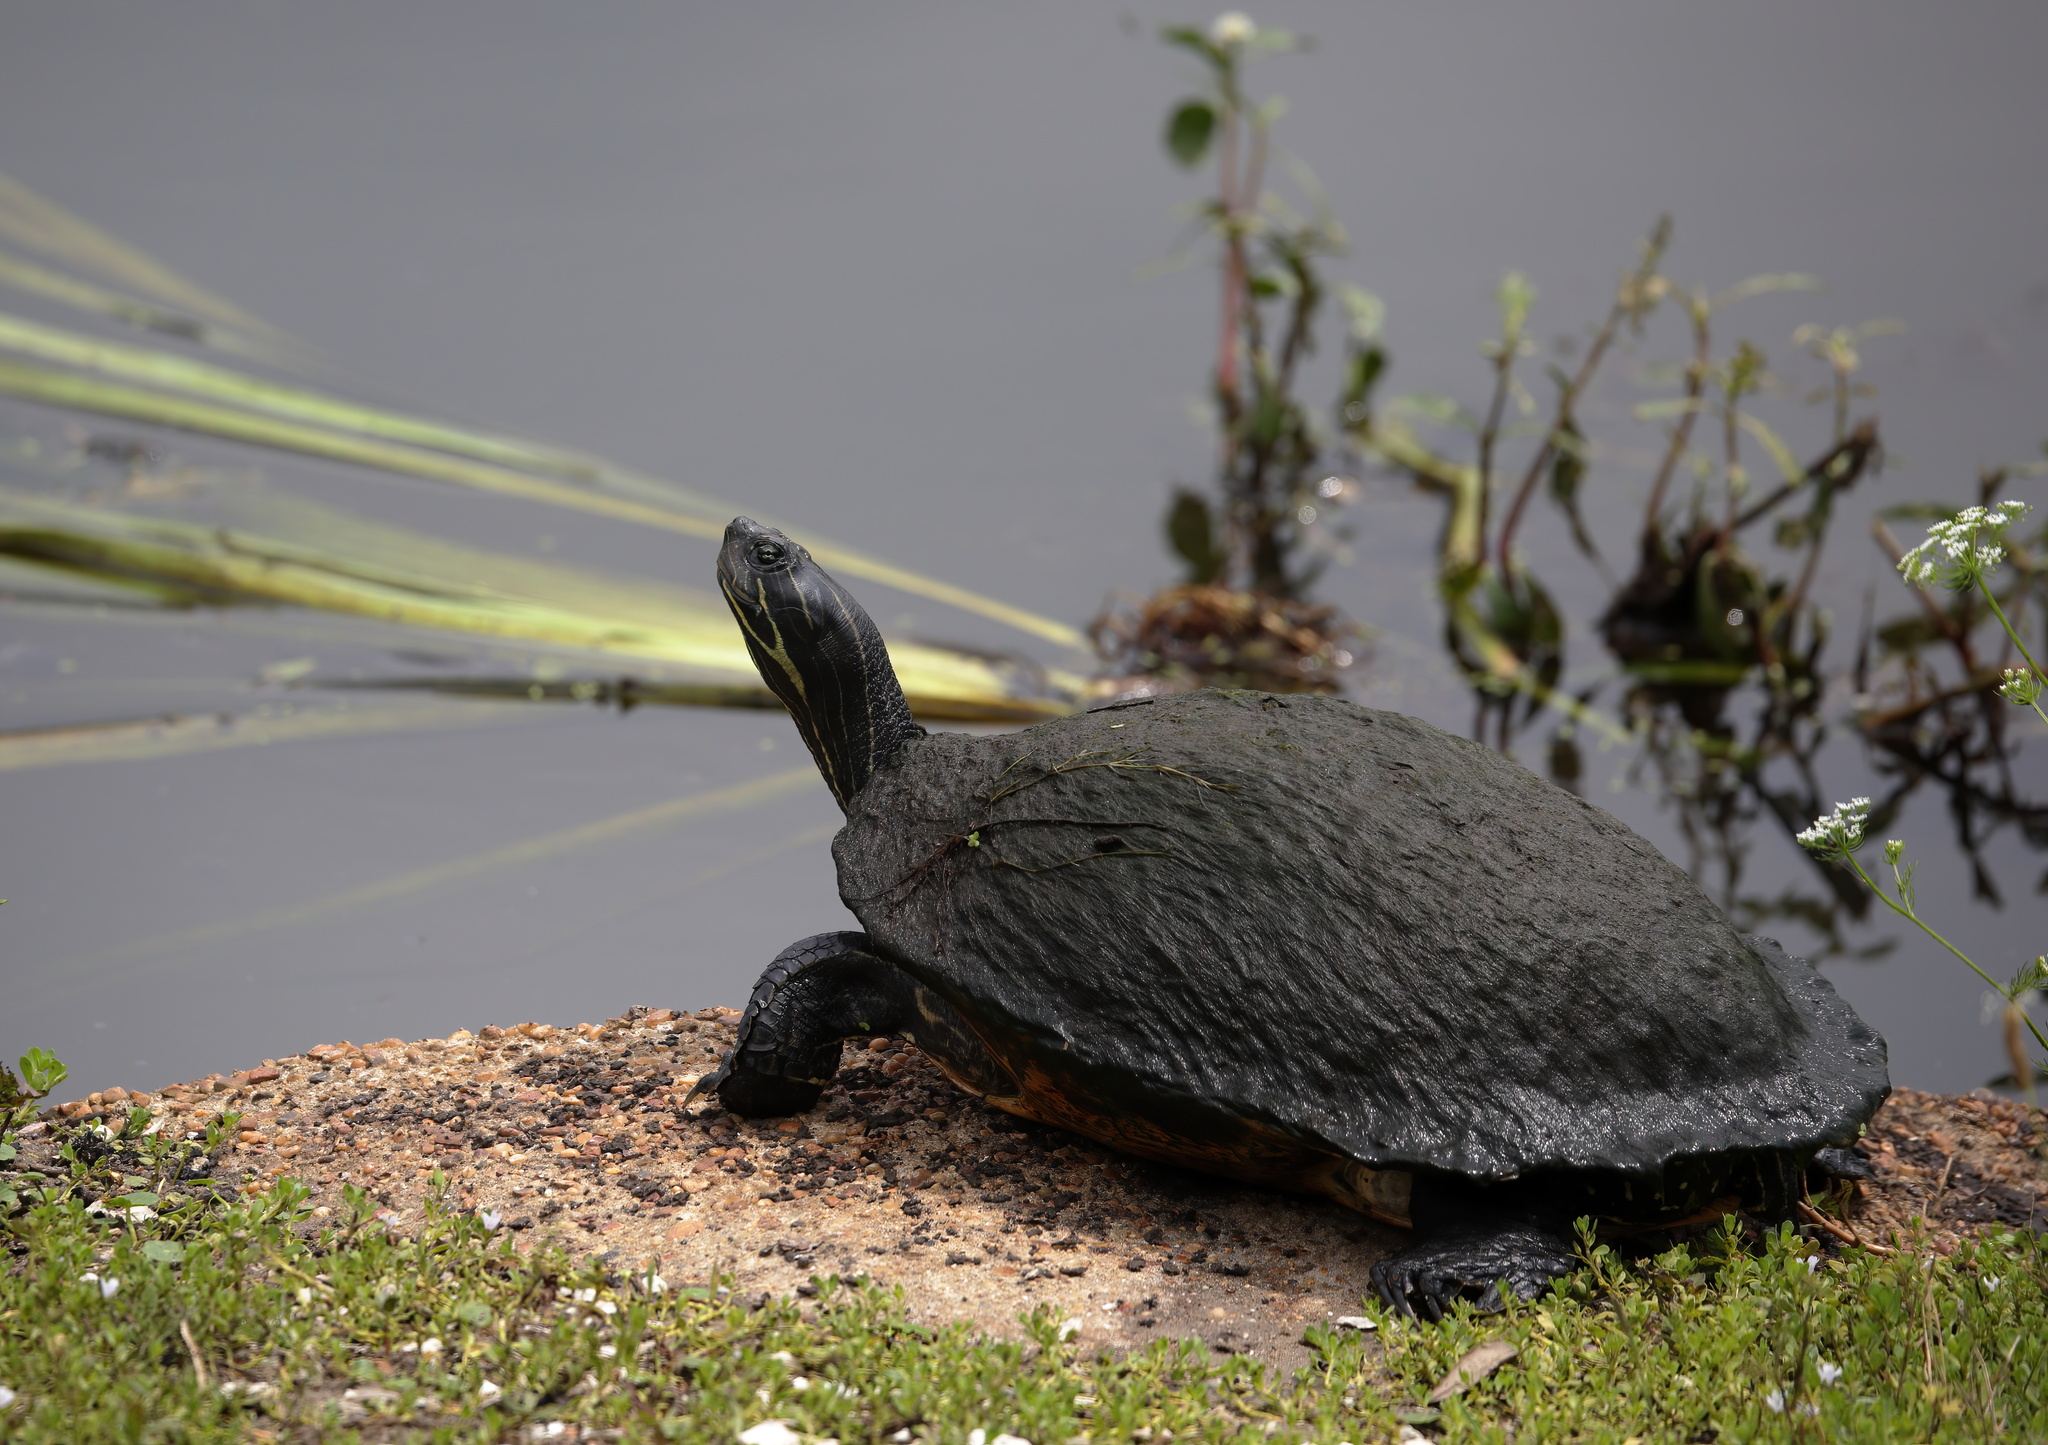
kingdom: Animalia
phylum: Chordata
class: Testudines
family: Emydidae
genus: Pseudemys
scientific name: Pseudemys concinna
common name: Eastern river cooter
